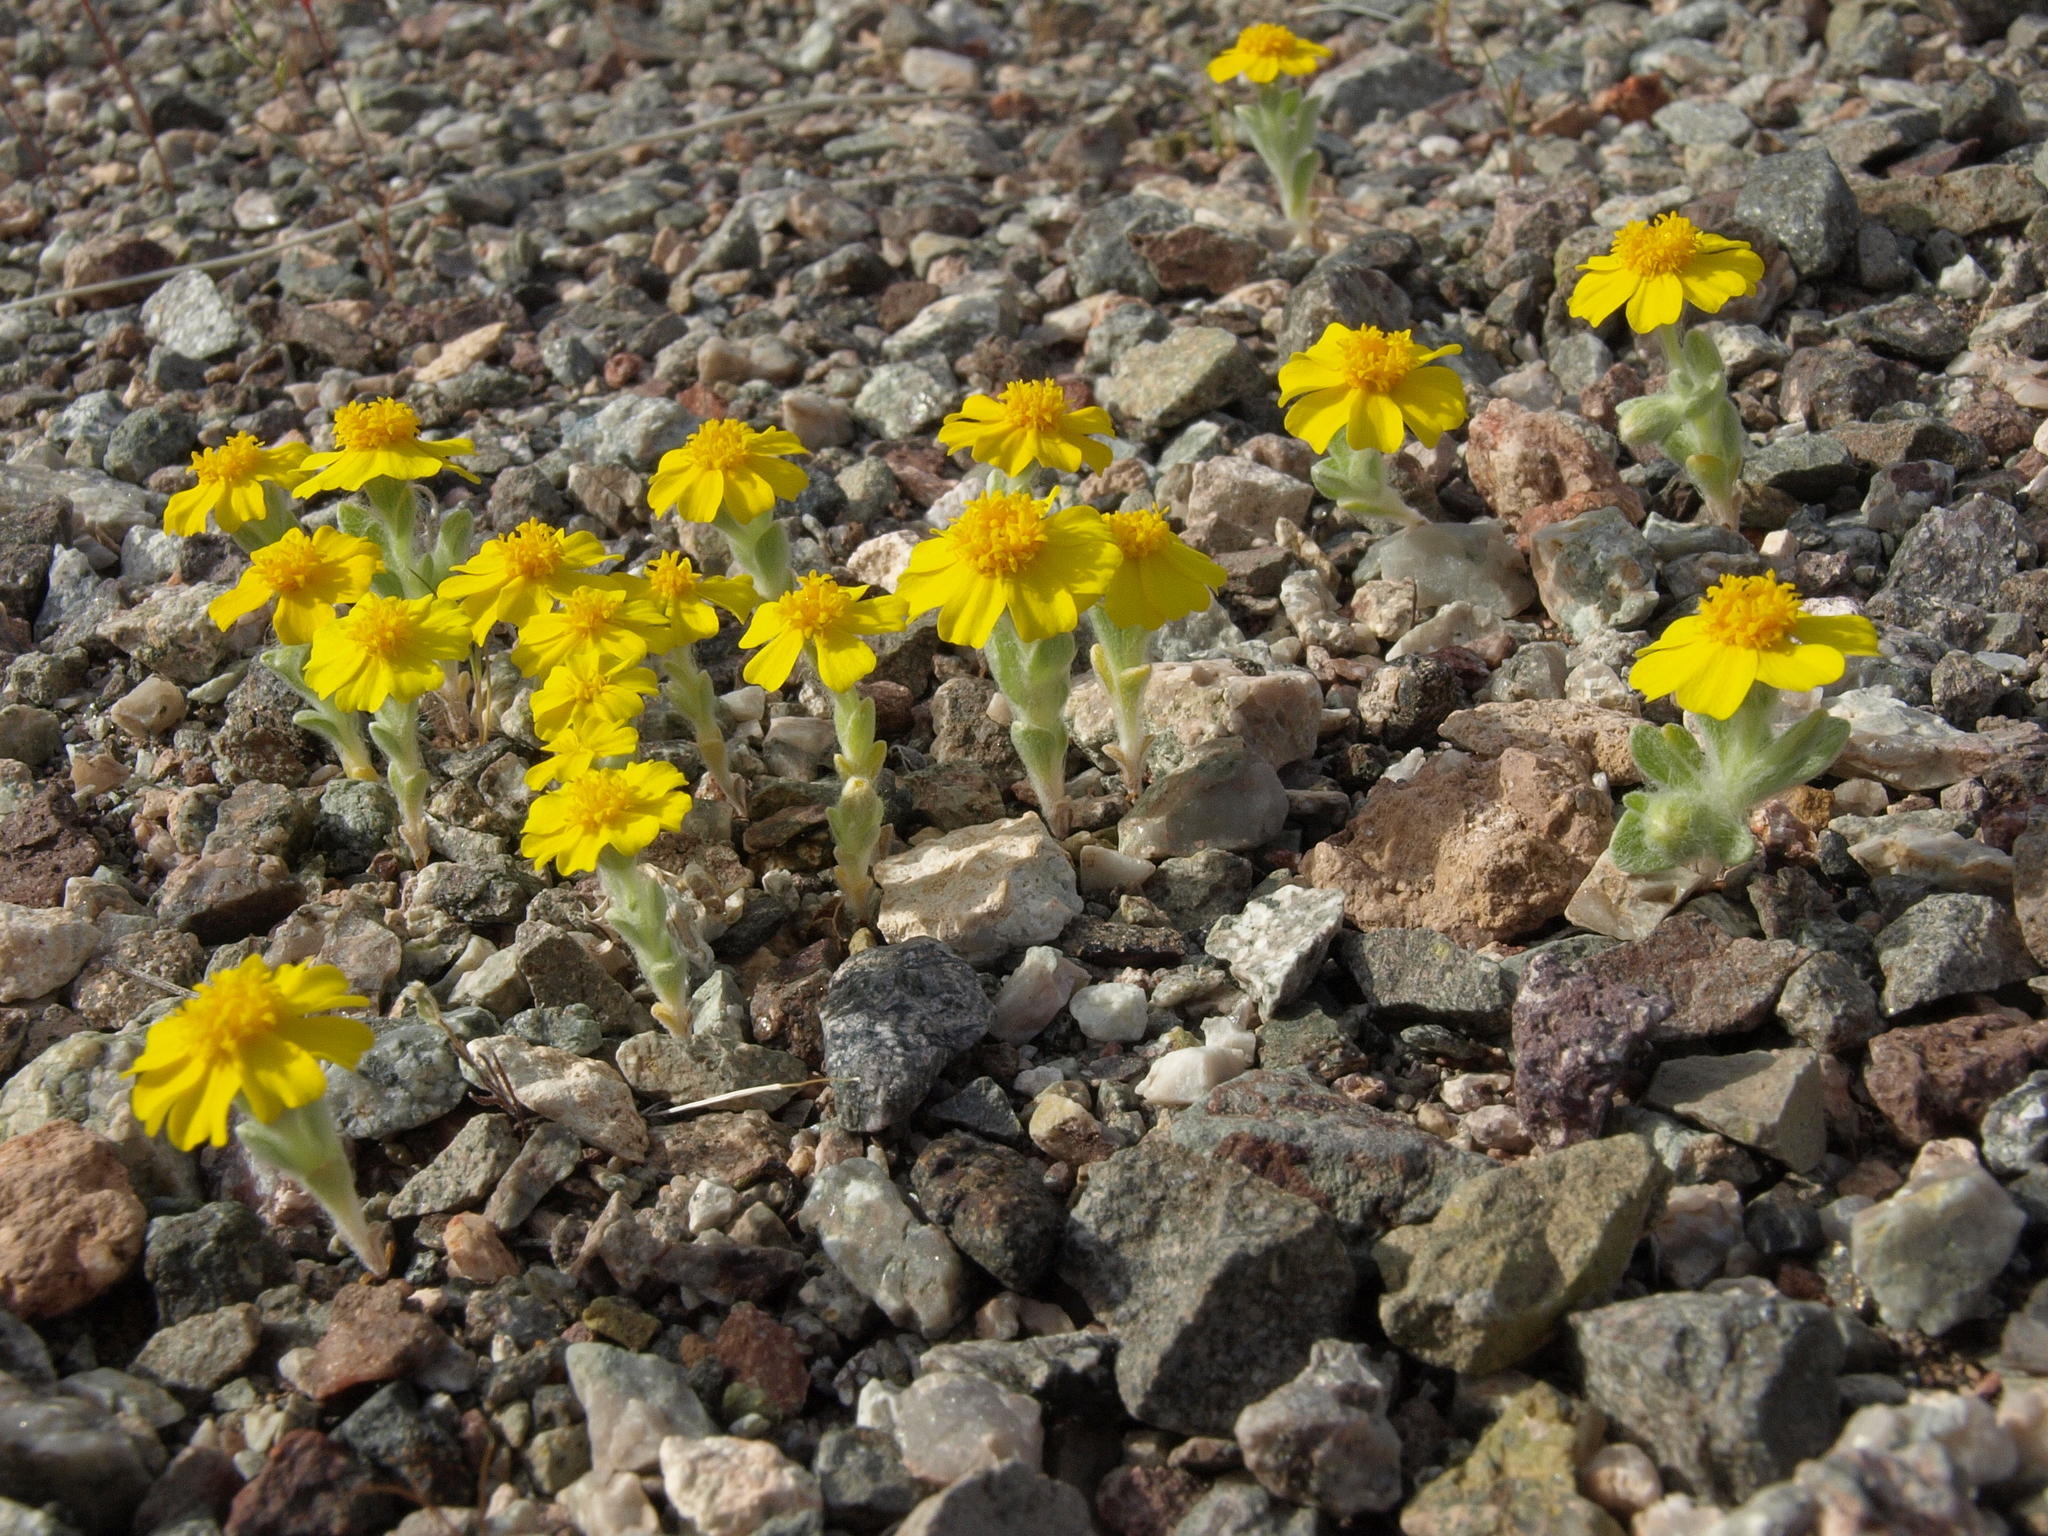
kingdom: Plantae
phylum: Tracheophyta
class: Magnoliopsida
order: Asterales
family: Asteraceae
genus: Eriophyllum
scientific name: Eriophyllum wallacei
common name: Wallace's woolly daisy
